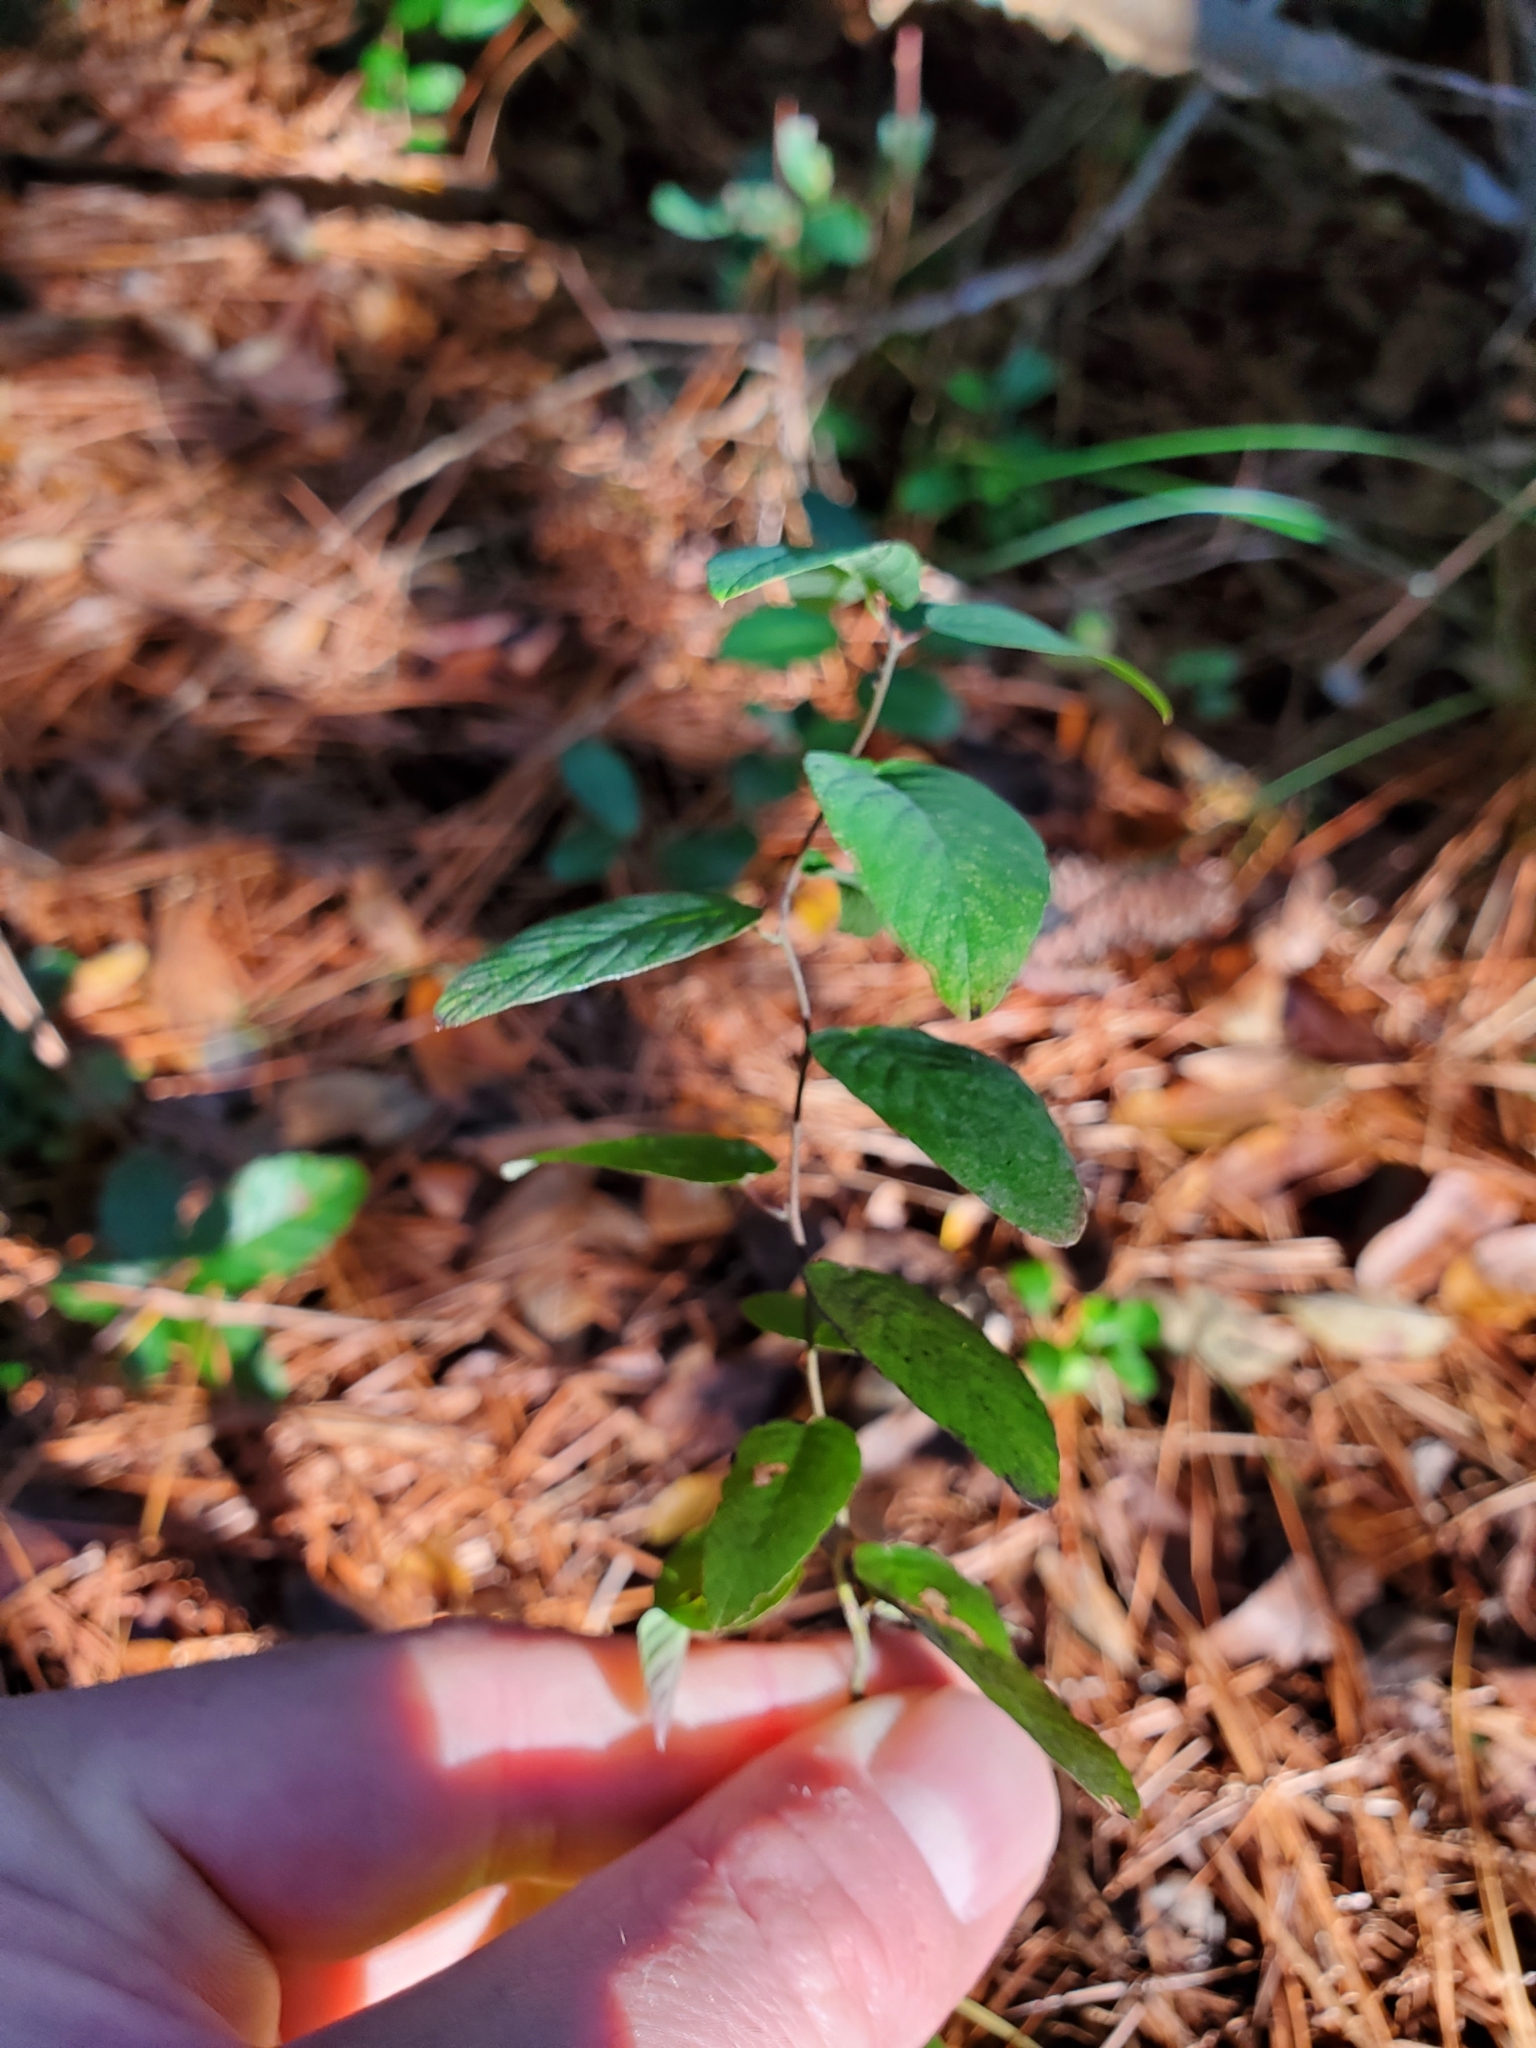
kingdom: Plantae
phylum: Tracheophyta
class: Magnoliopsida
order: Rosales
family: Rhamnaceae
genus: Berchemia
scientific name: Berchemia scandens
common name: Supplejack
